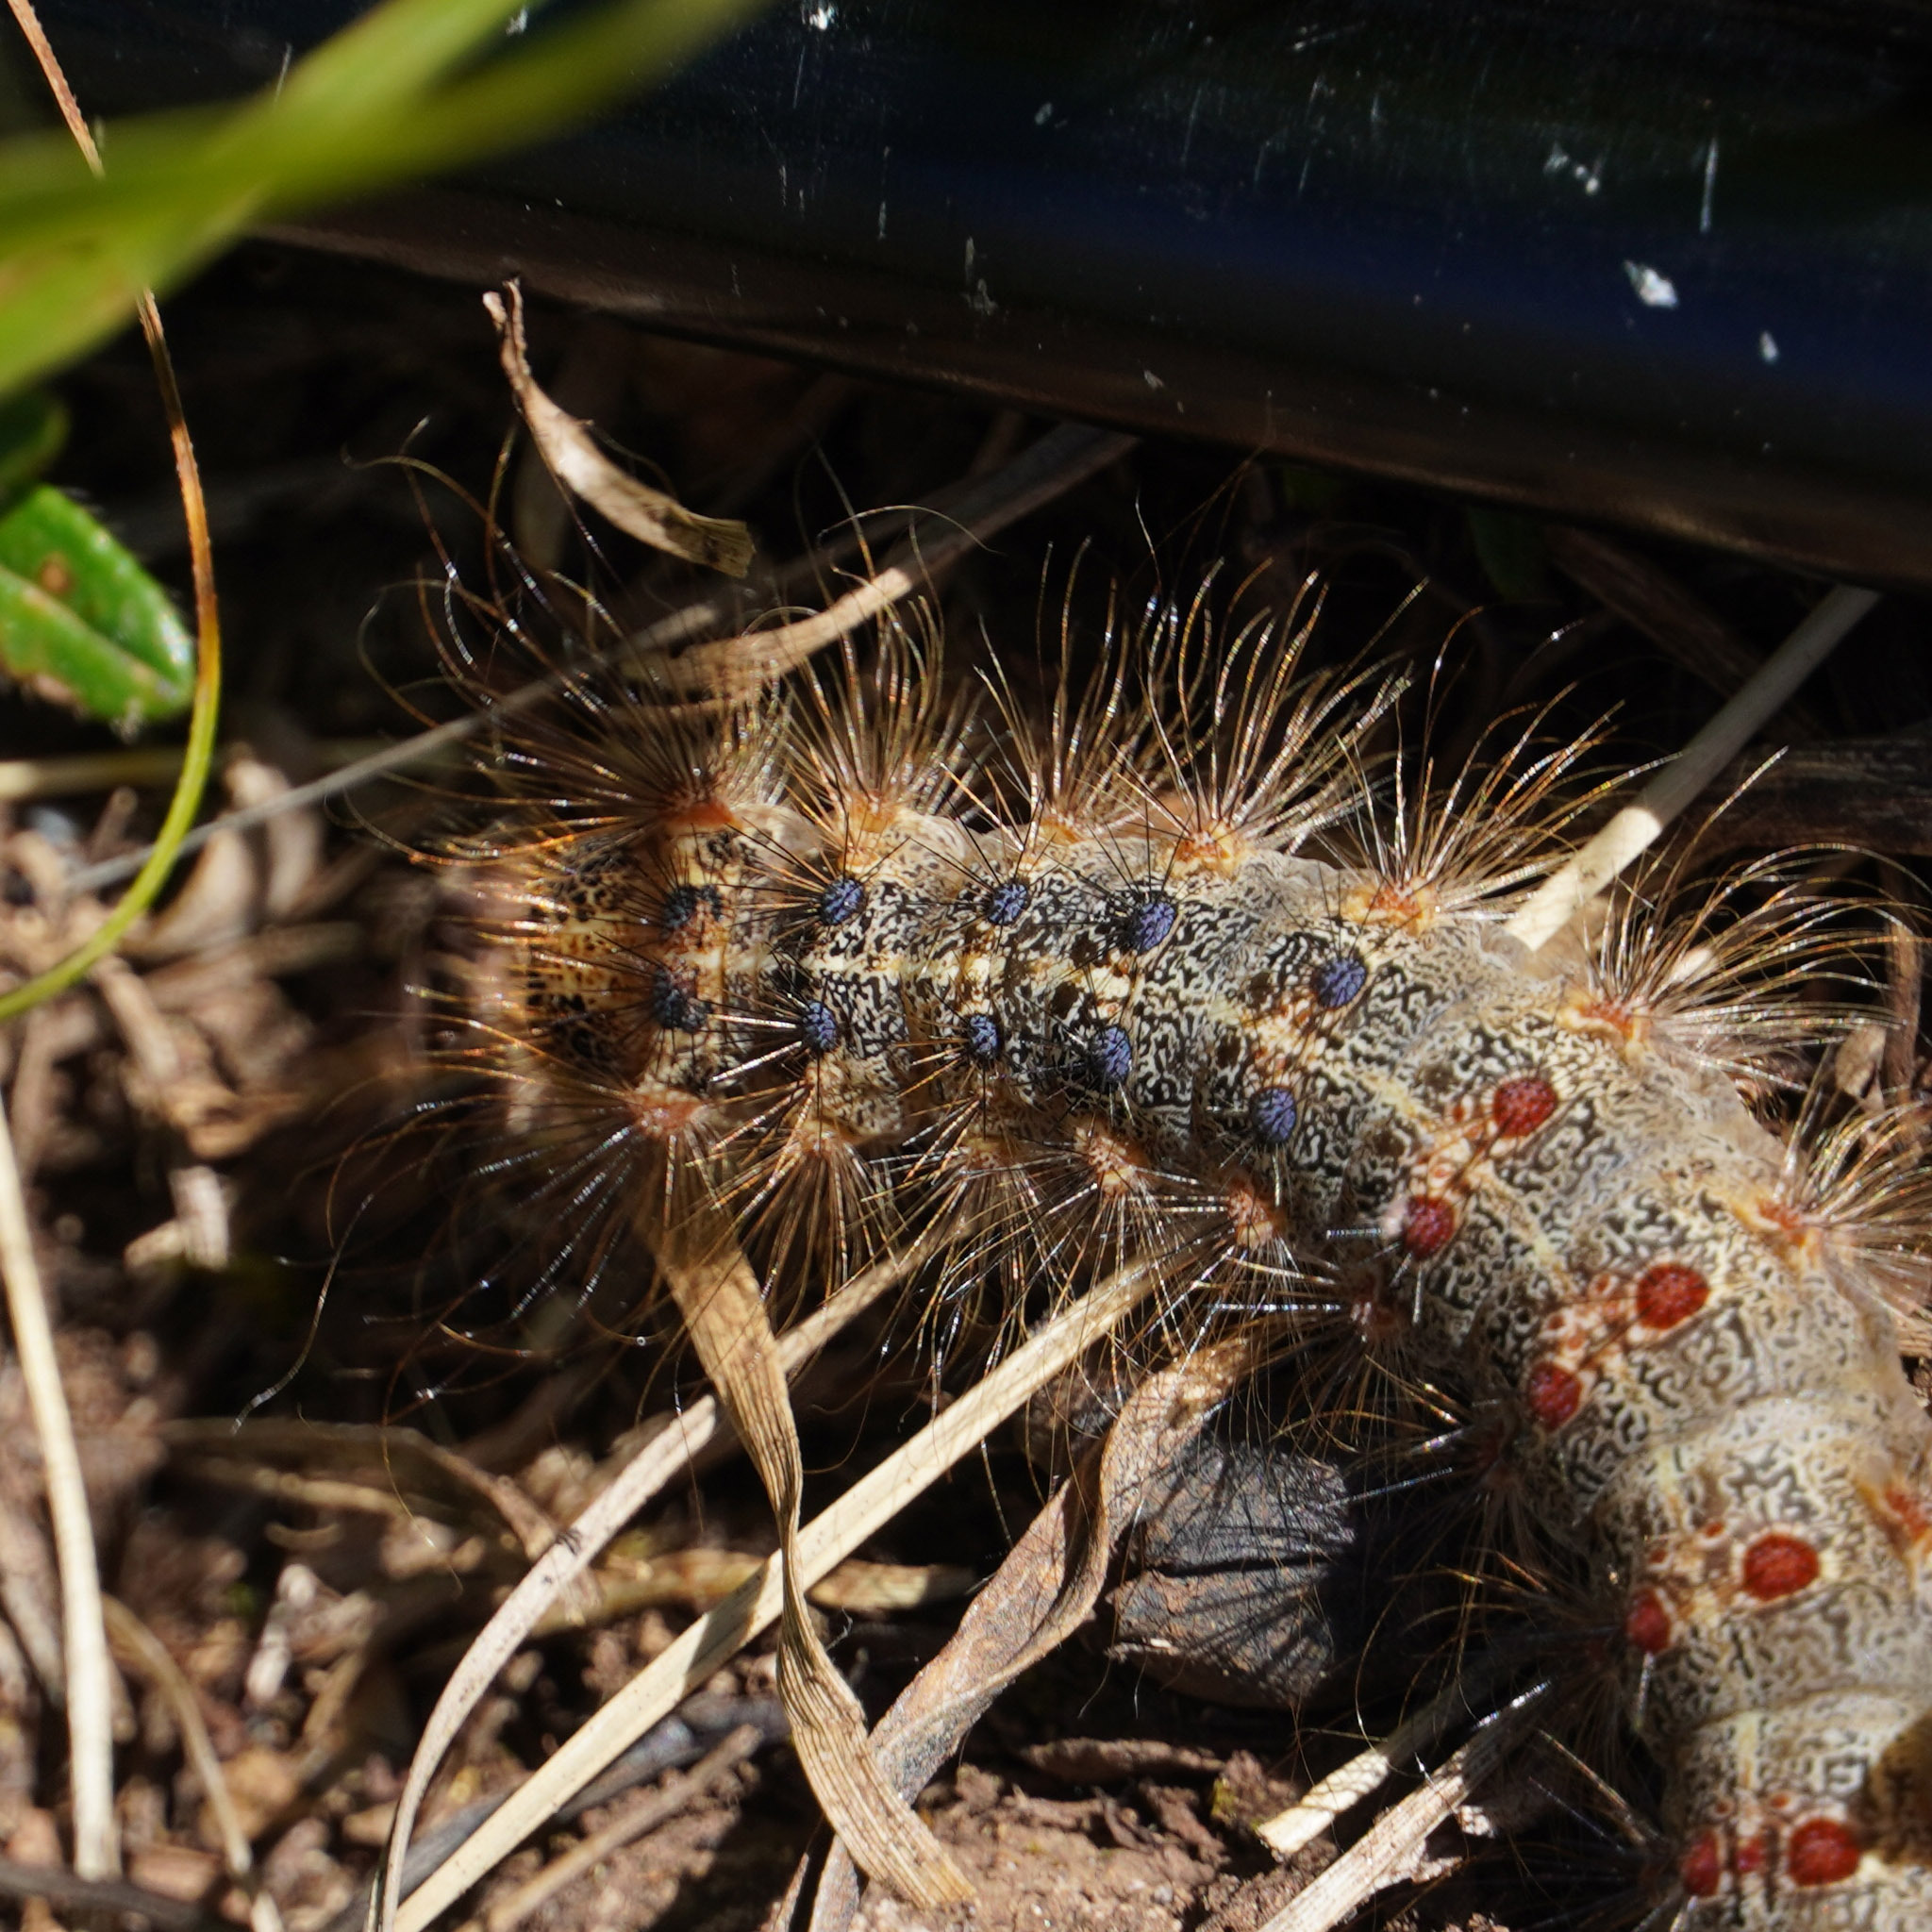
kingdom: Animalia
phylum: Arthropoda
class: Insecta
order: Lepidoptera
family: Erebidae
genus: Lymantria
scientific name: Lymantria dispar
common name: Gypsy moth
